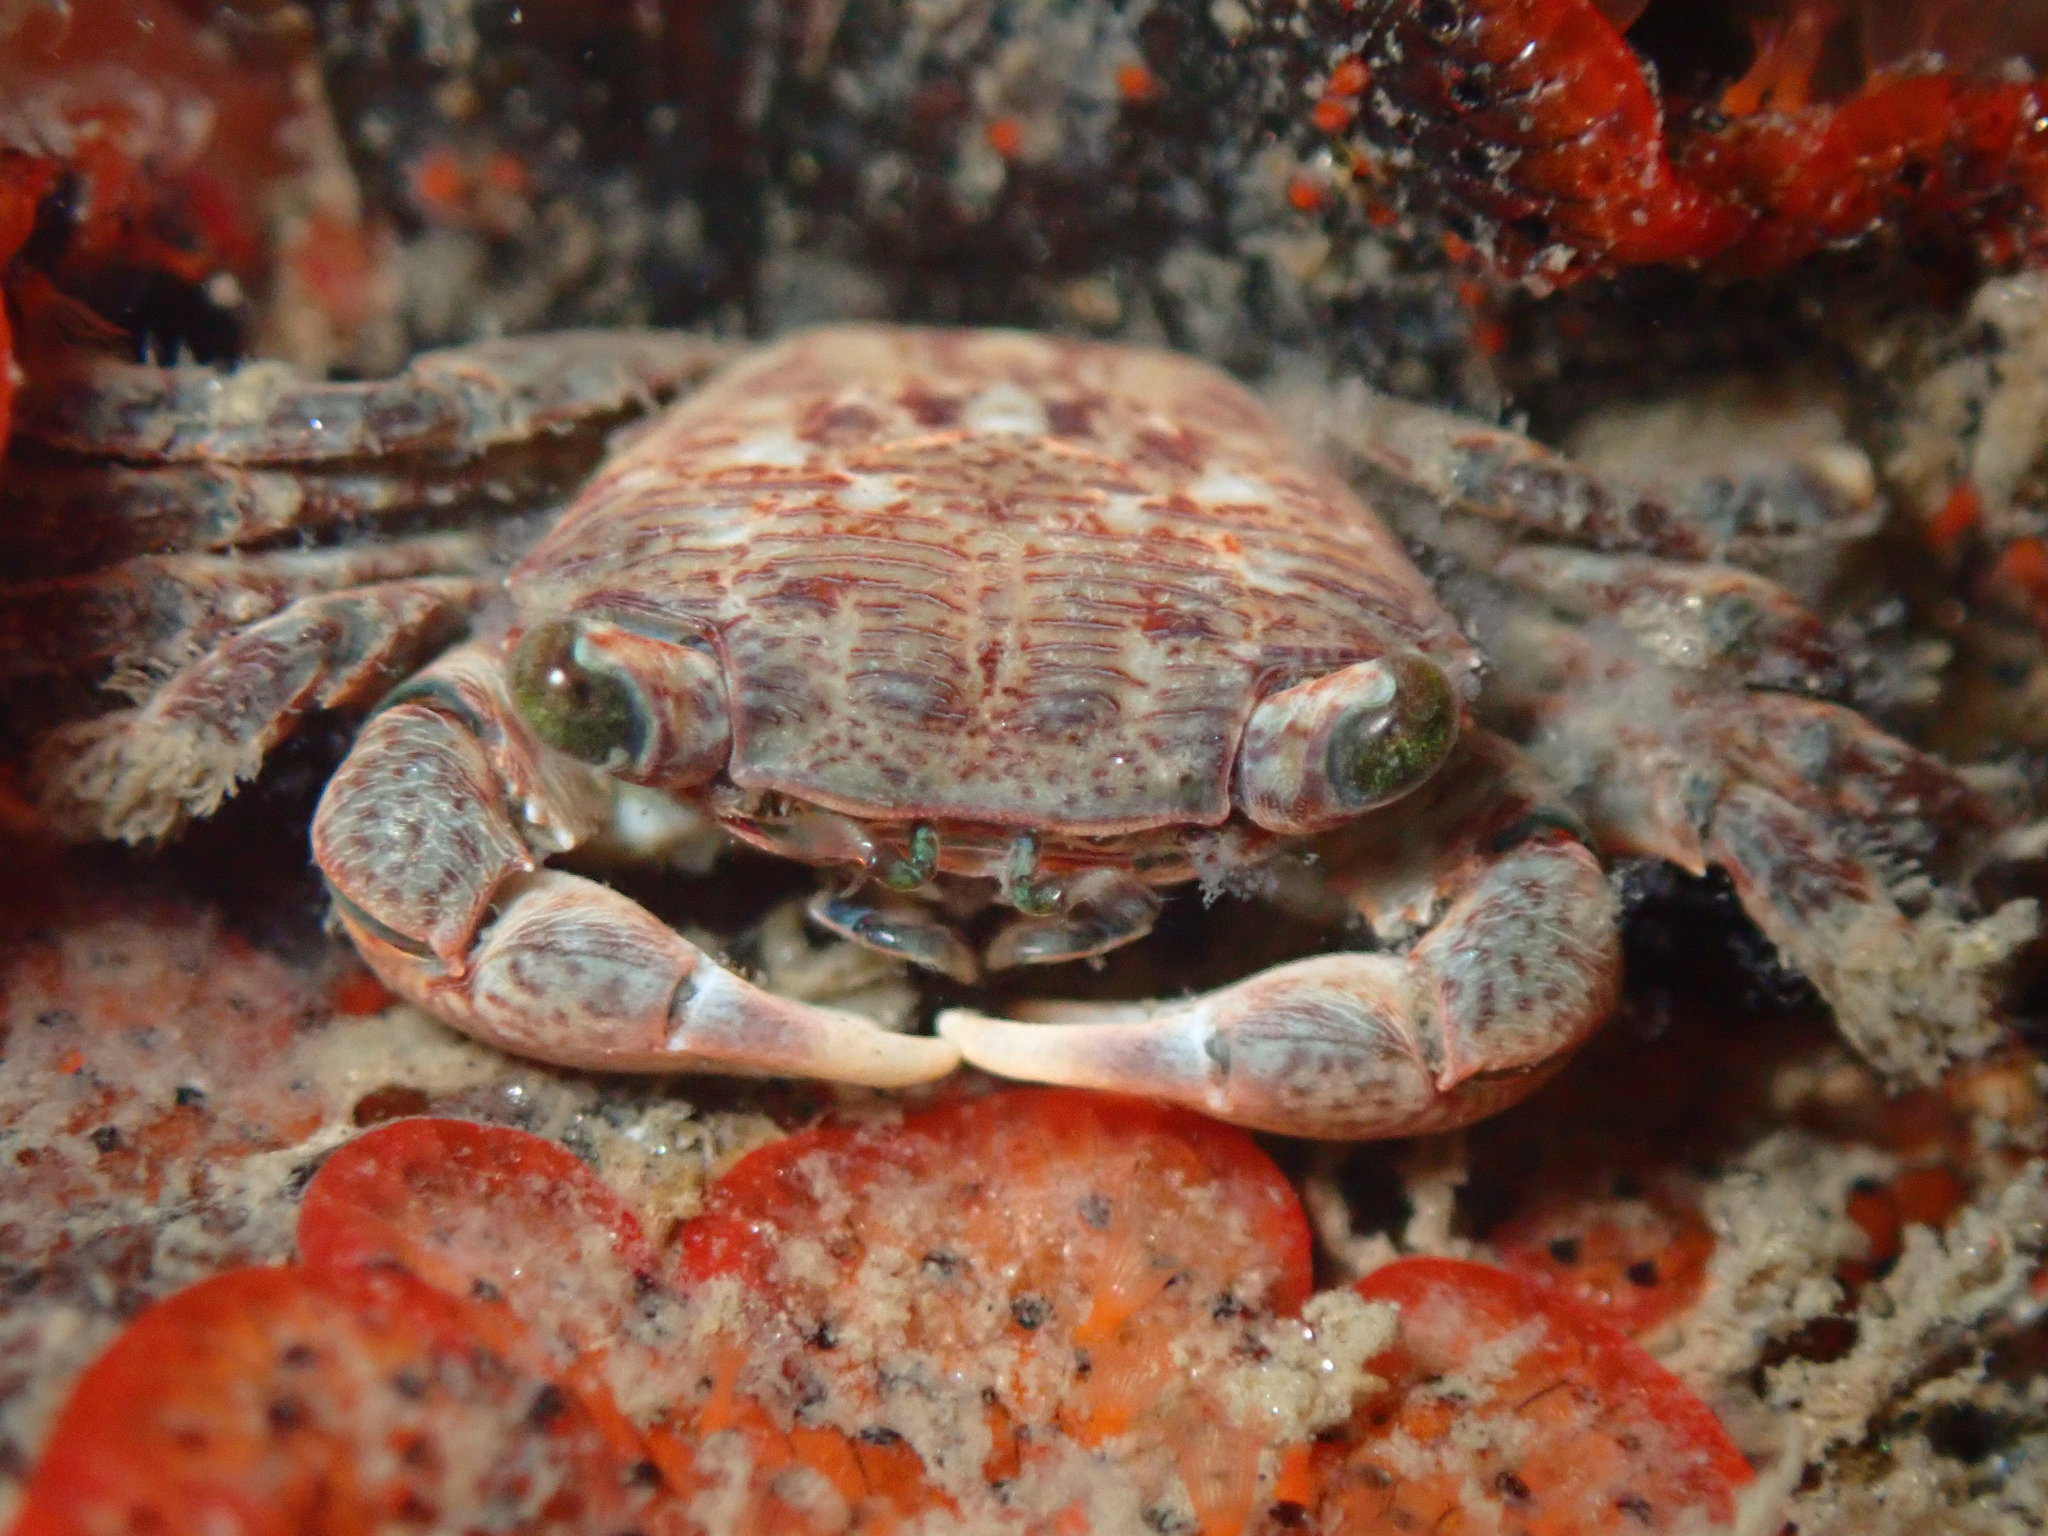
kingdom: Animalia
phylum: Arthropoda
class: Malacostraca
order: Decapoda
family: Grapsidae
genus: Pachygrapsus
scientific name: Pachygrapsus crassipes
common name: Striped shore crab
